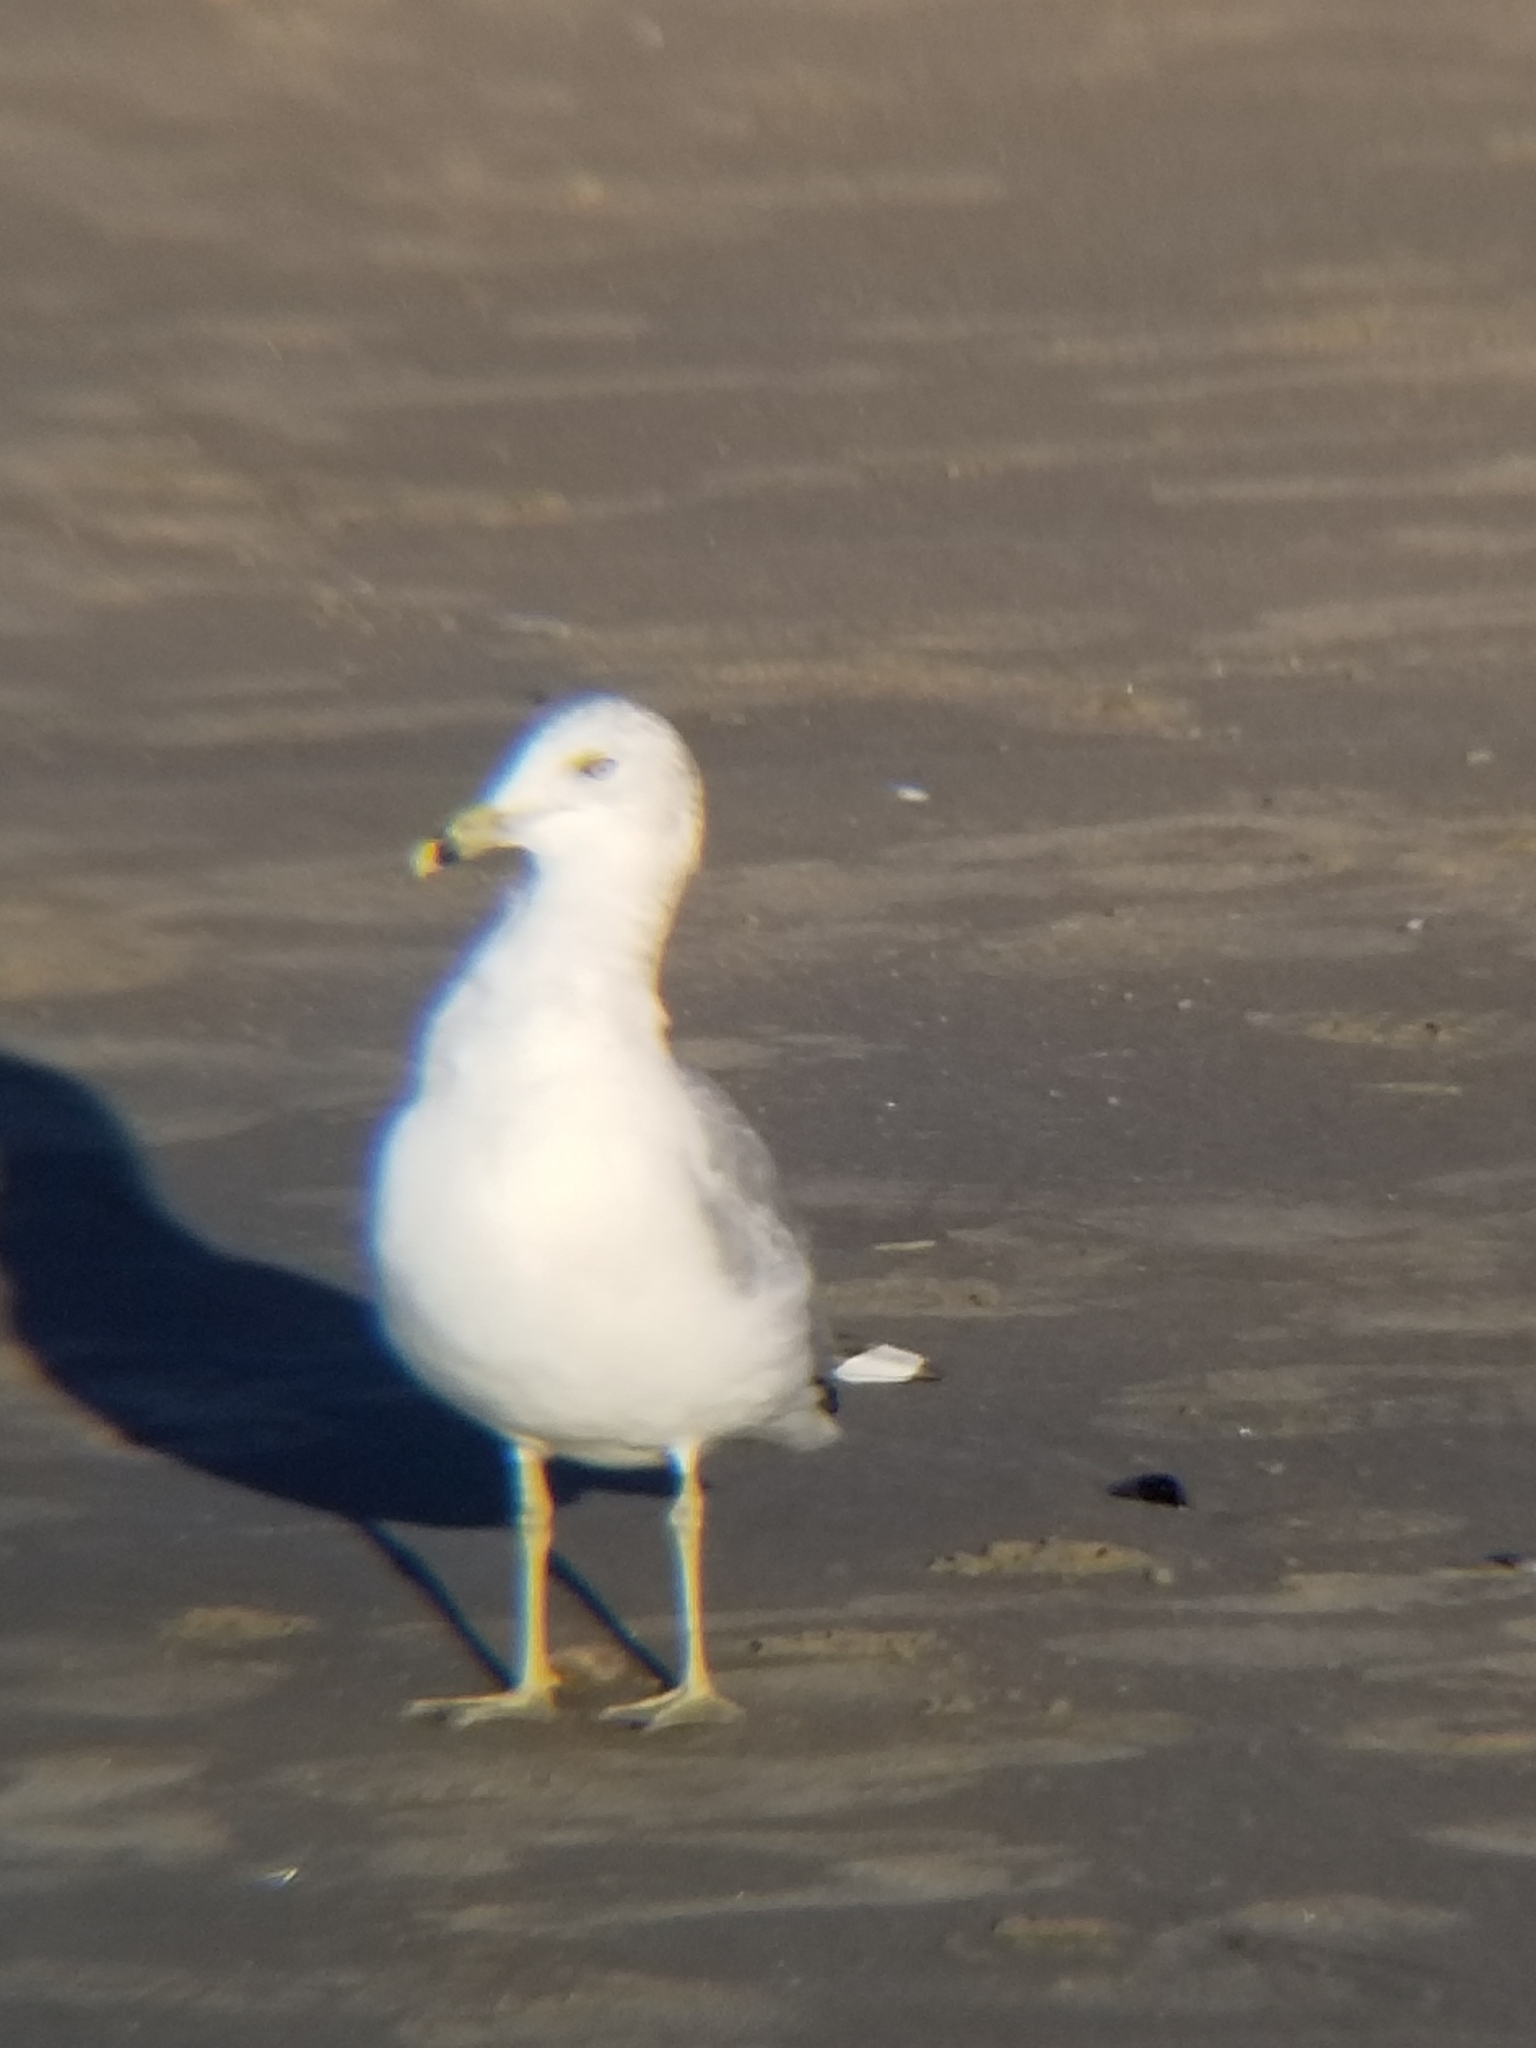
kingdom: Animalia
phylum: Chordata
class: Aves
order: Charadriiformes
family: Laridae
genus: Larus
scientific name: Larus delawarensis
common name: Ring-billed gull
